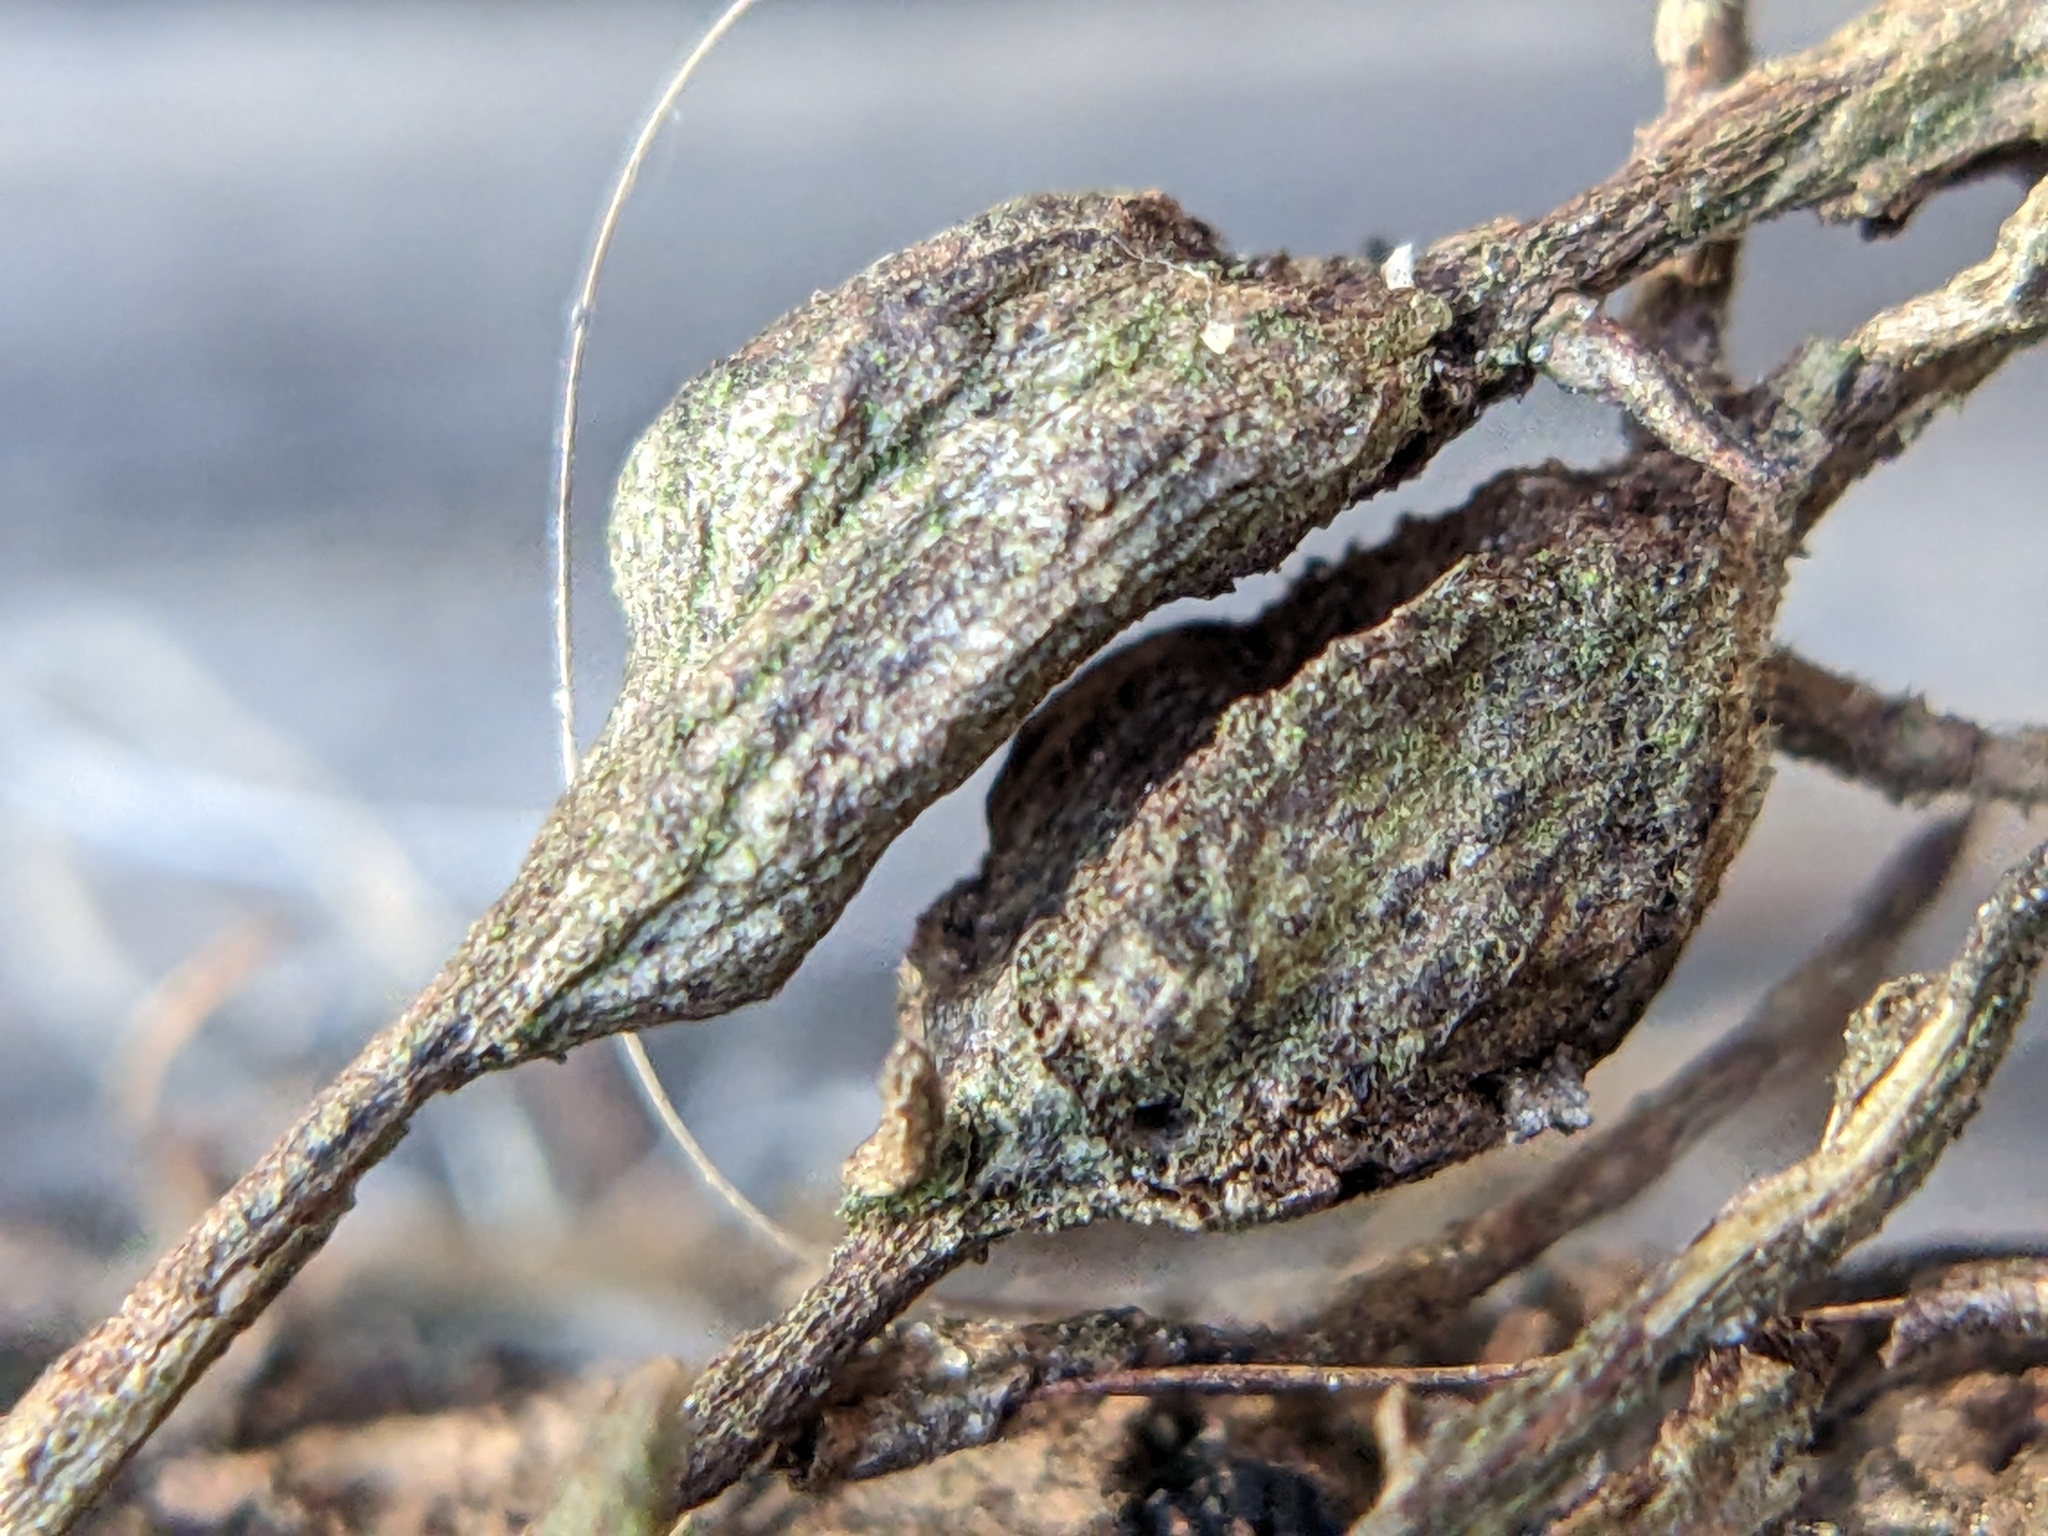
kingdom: Animalia
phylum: Arthropoda
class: Insecta
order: Diptera
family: Cecidomyiidae
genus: Lasioptera
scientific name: Lasioptera psederae
